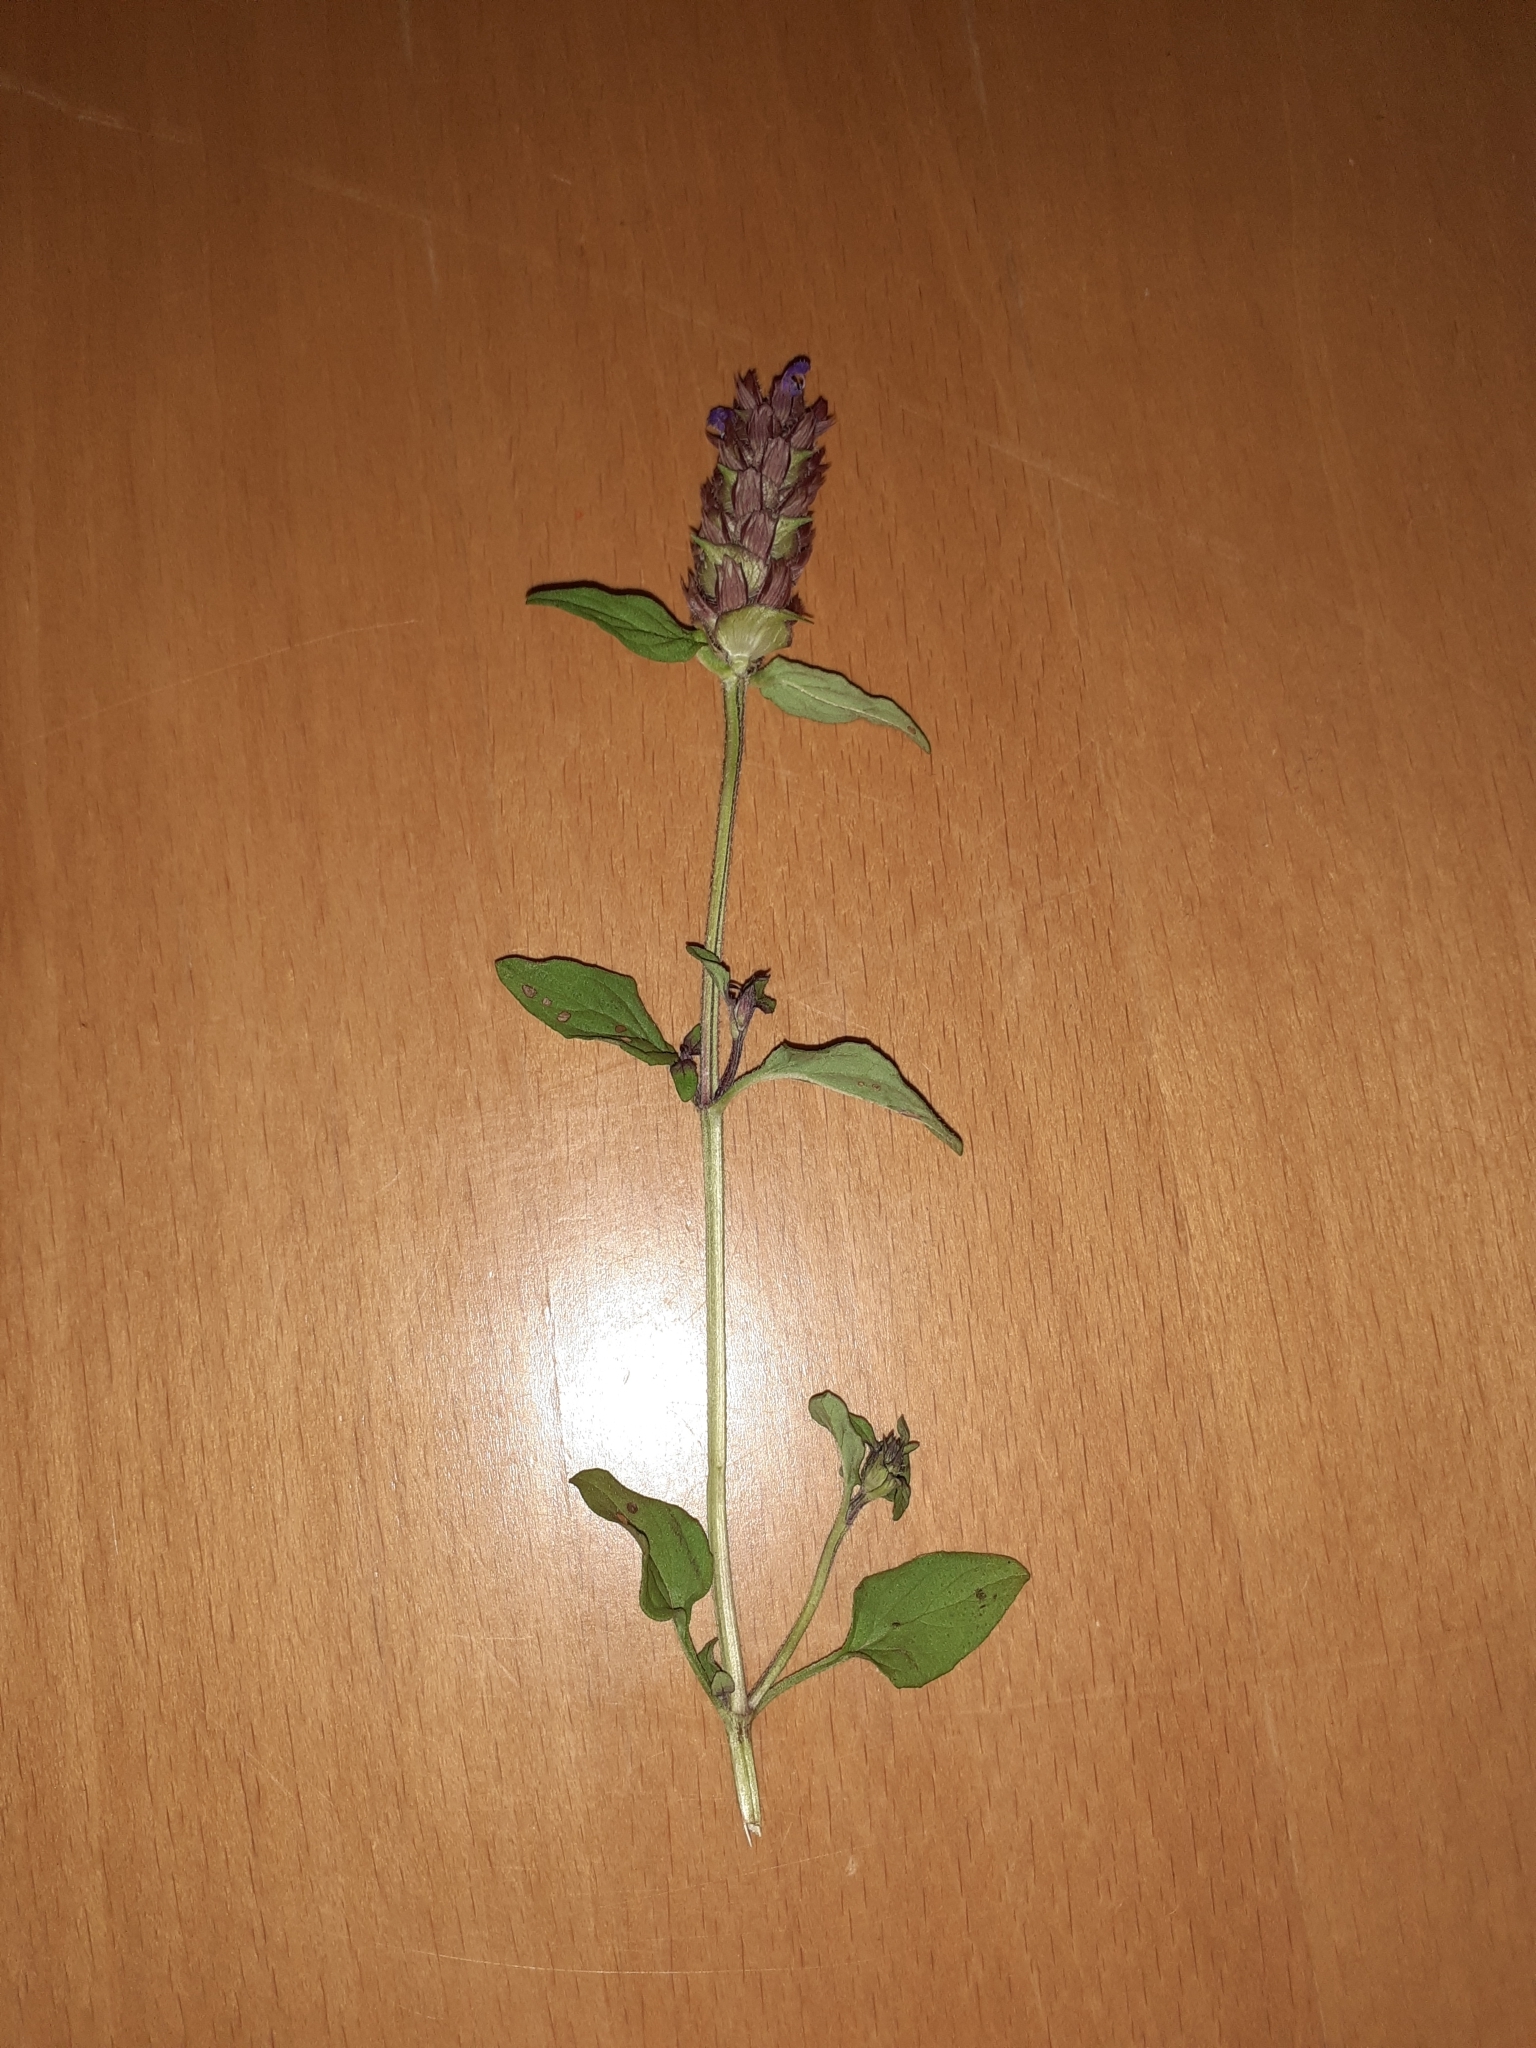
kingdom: Plantae
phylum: Tracheophyta
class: Magnoliopsida
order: Lamiales
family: Lamiaceae
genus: Prunella
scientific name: Prunella vulgaris
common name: Heal-all
